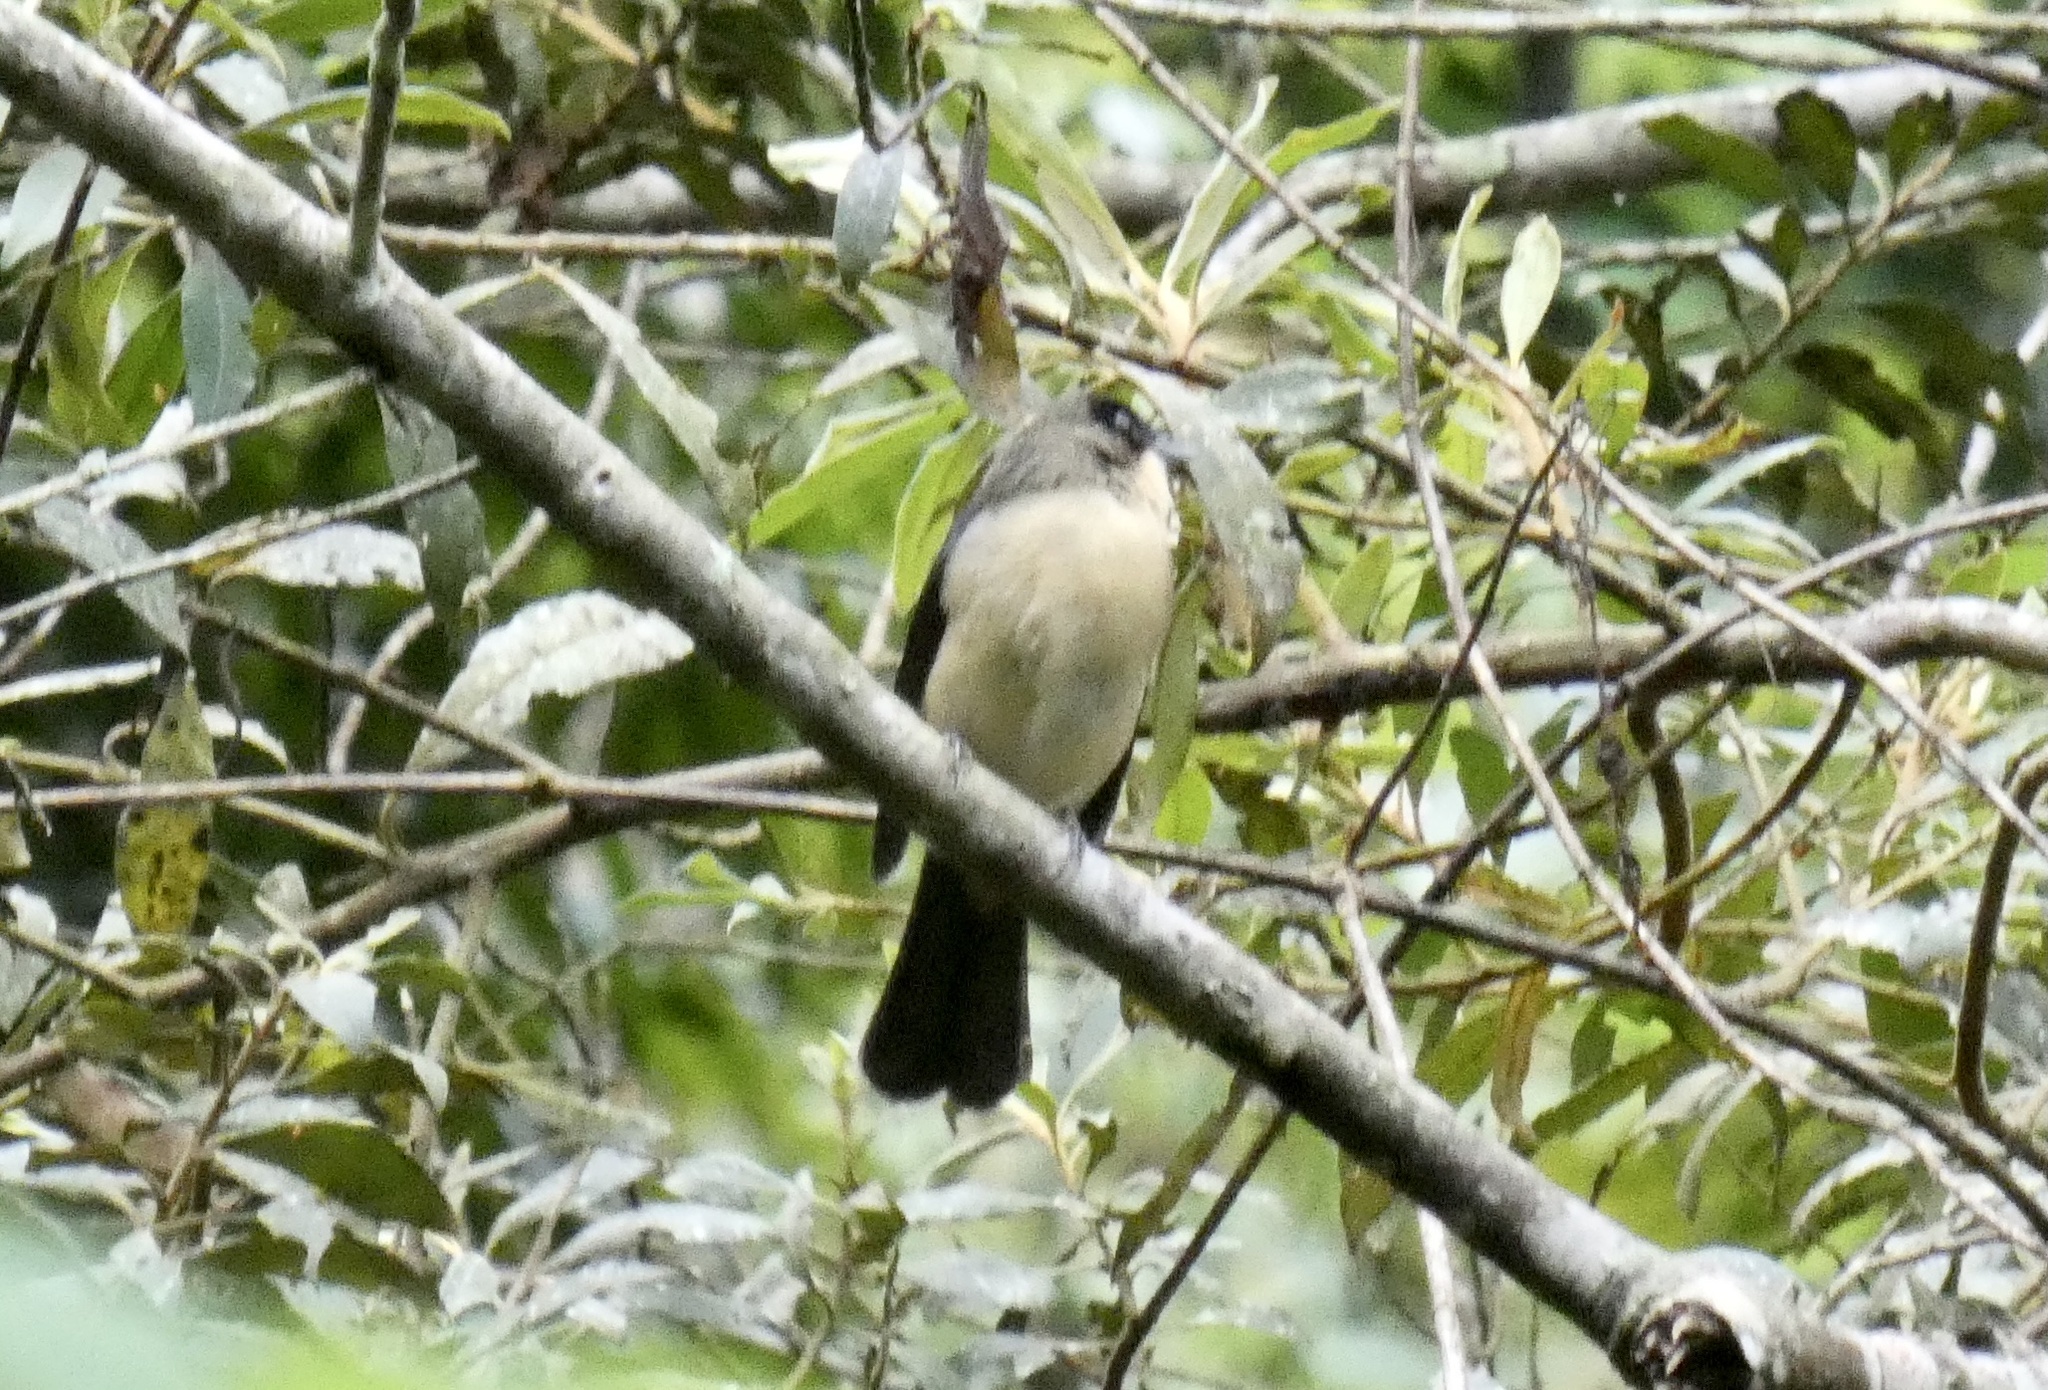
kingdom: Animalia
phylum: Chordata
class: Aves
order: Passeriformes
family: Thraupidae
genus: Trichothraupis
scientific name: Trichothraupis melanops
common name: Black-goggled tanager
